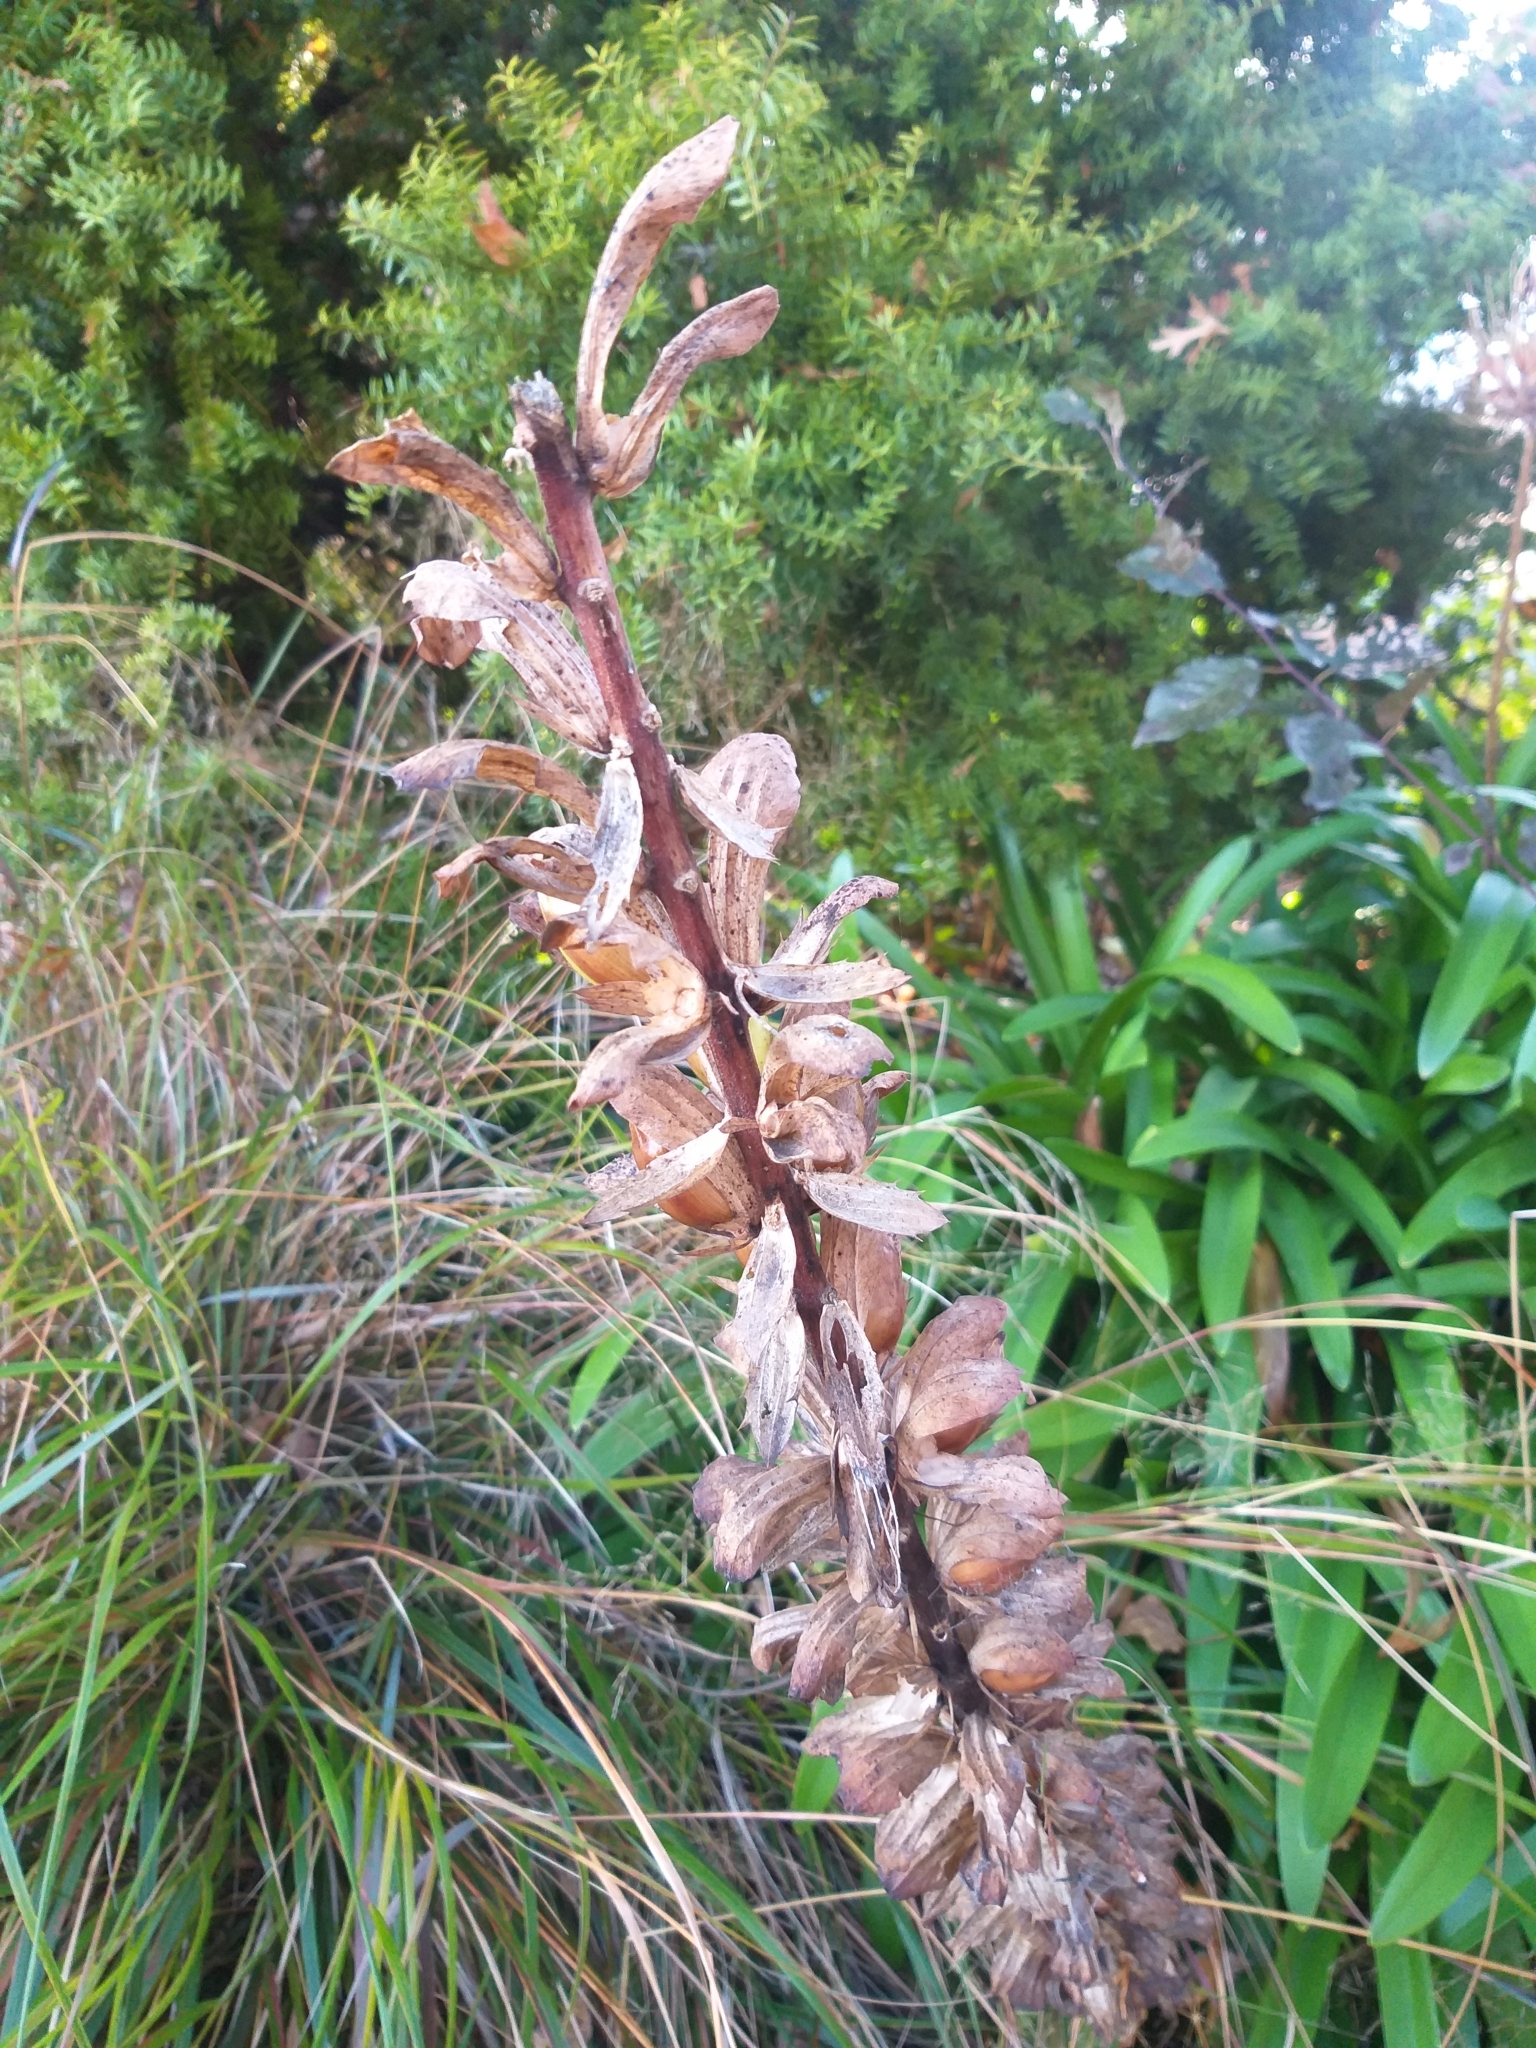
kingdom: Plantae
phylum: Tracheophyta
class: Magnoliopsida
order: Lamiales
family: Acanthaceae
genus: Acanthus
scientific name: Acanthus mollis
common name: Bear's-breech
